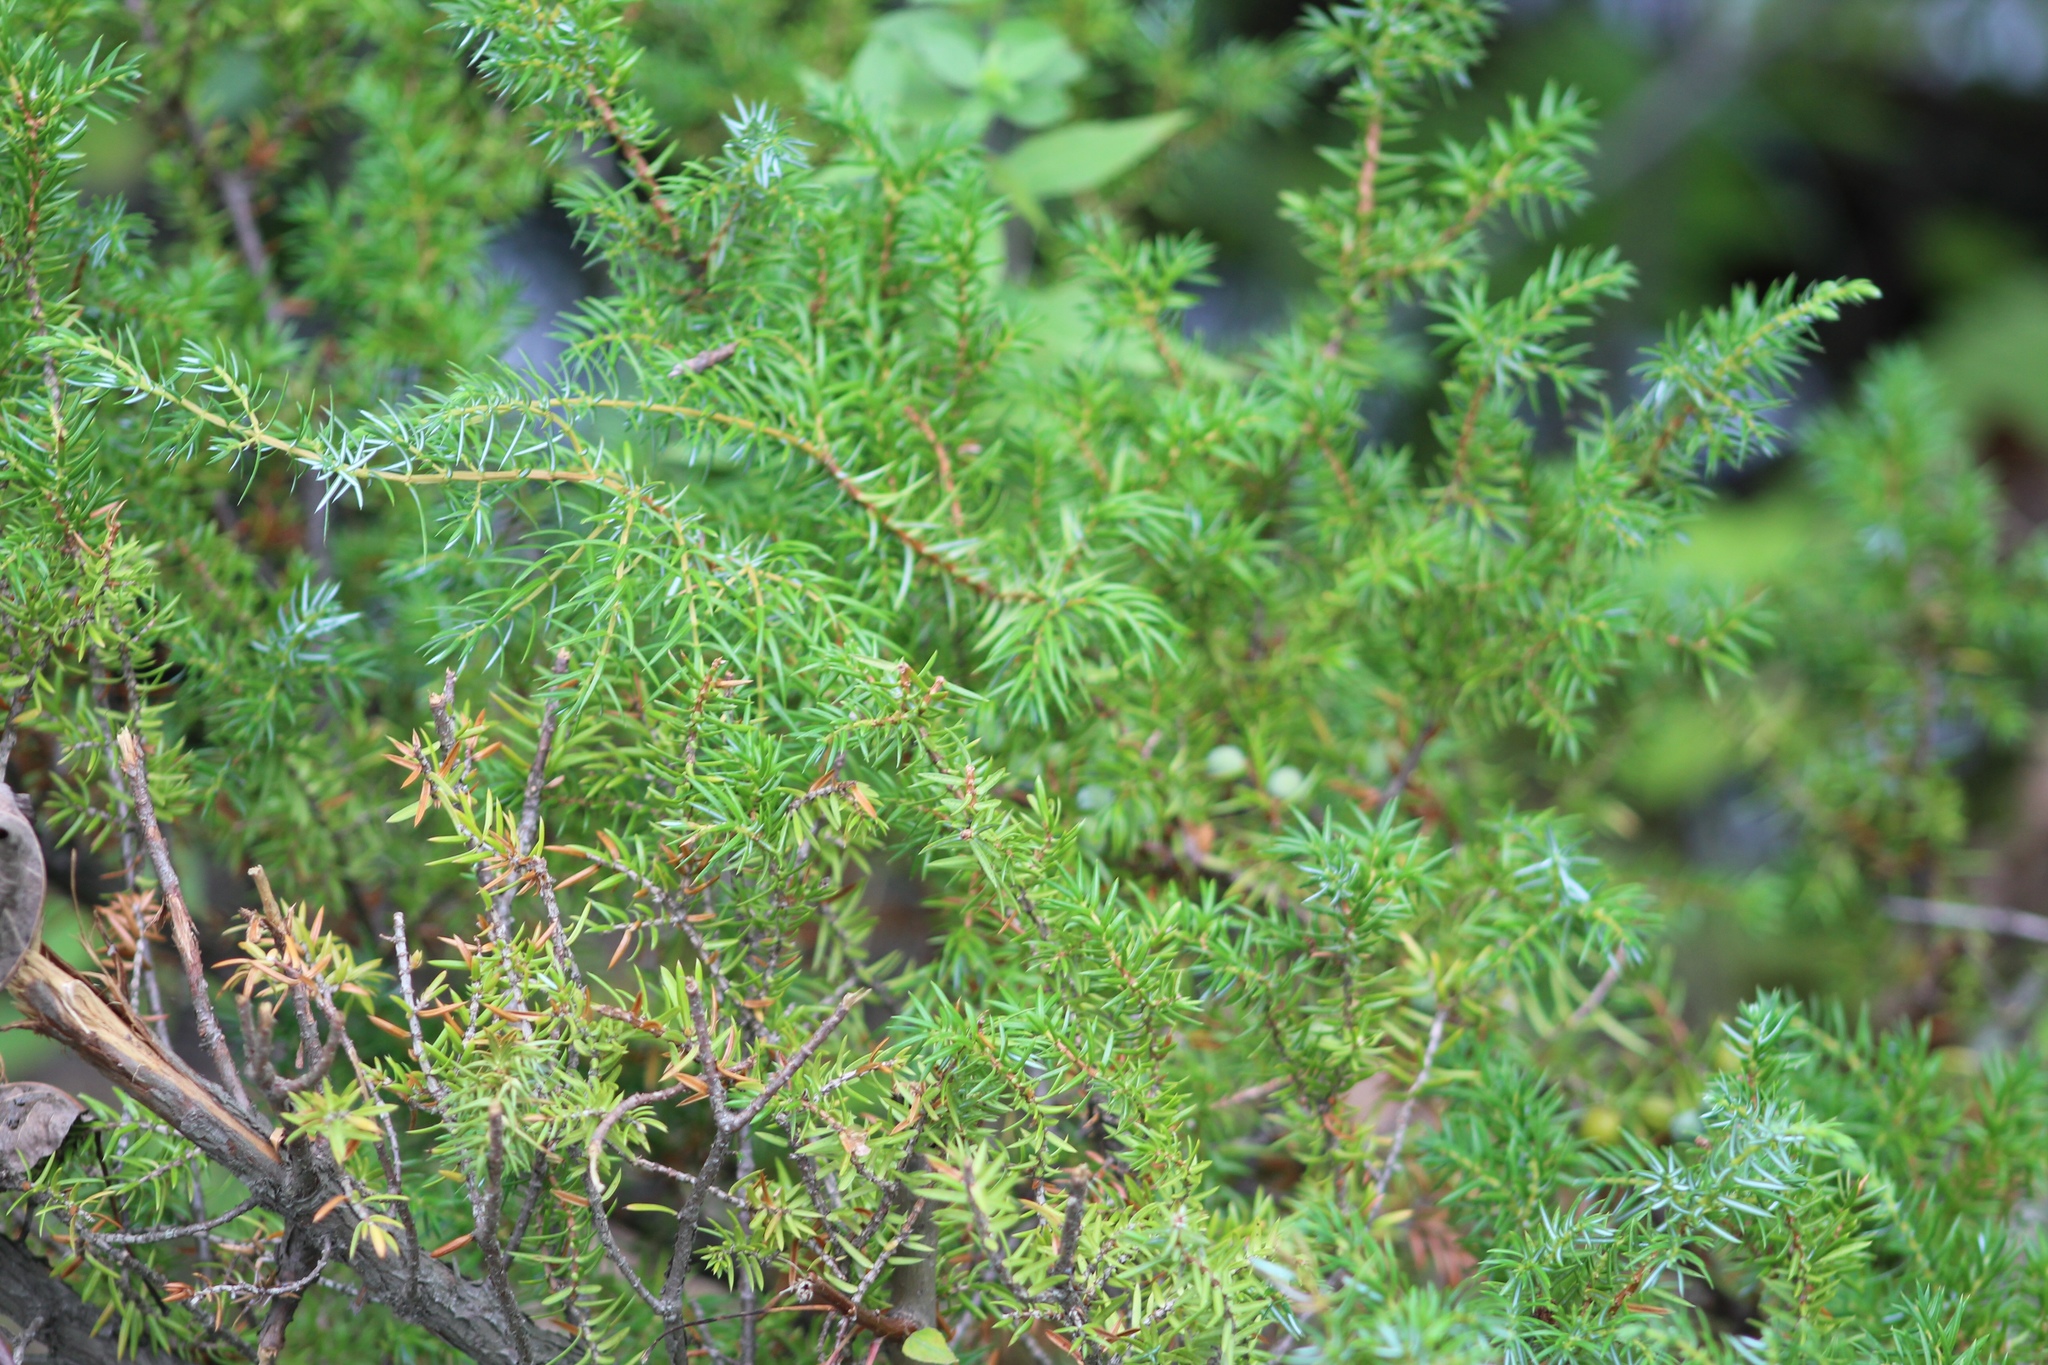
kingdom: Plantae
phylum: Tracheophyta
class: Pinopsida
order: Pinales
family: Cupressaceae
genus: Juniperus
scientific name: Juniperus communis
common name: Common juniper
